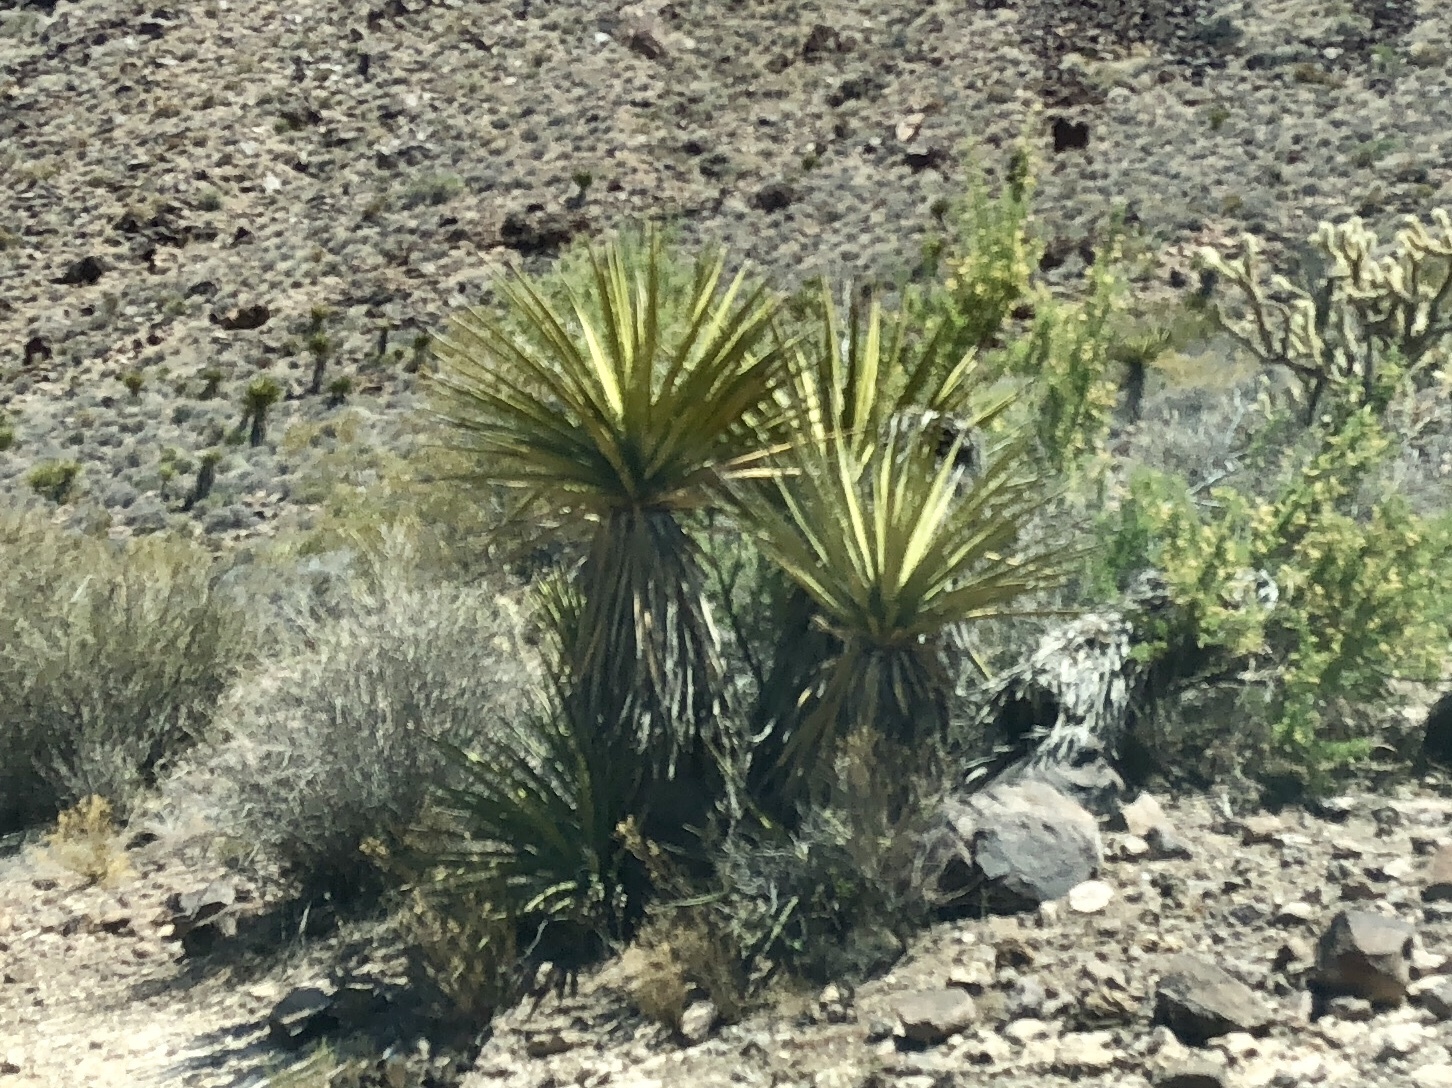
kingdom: Plantae
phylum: Tracheophyta
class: Liliopsida
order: Asparagales
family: Asparagaceae
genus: Yucca
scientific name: Yucca schidigera
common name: Mojave yucca
